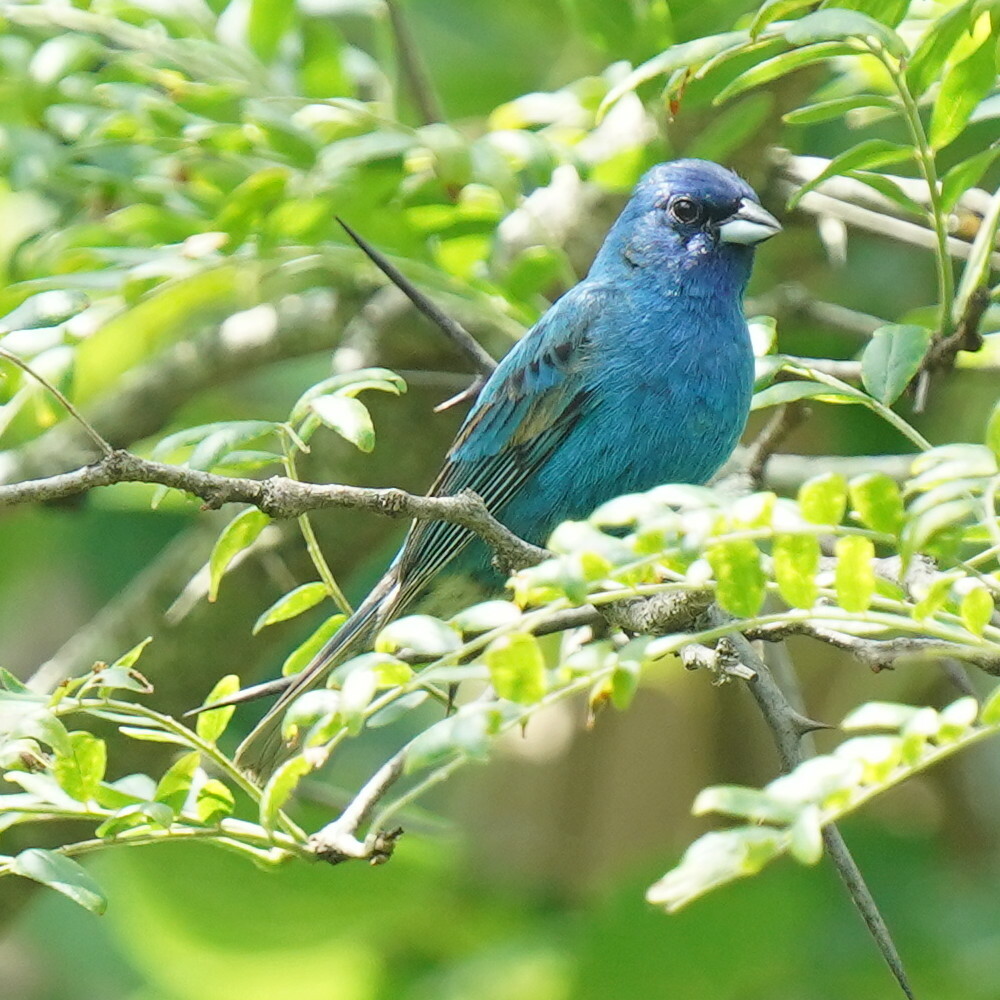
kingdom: Animalia
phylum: Chordata
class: Aves
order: Passeriformes
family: Cardinalidae
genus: Passerina
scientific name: Passerina cyanea
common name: Indigo bunting
